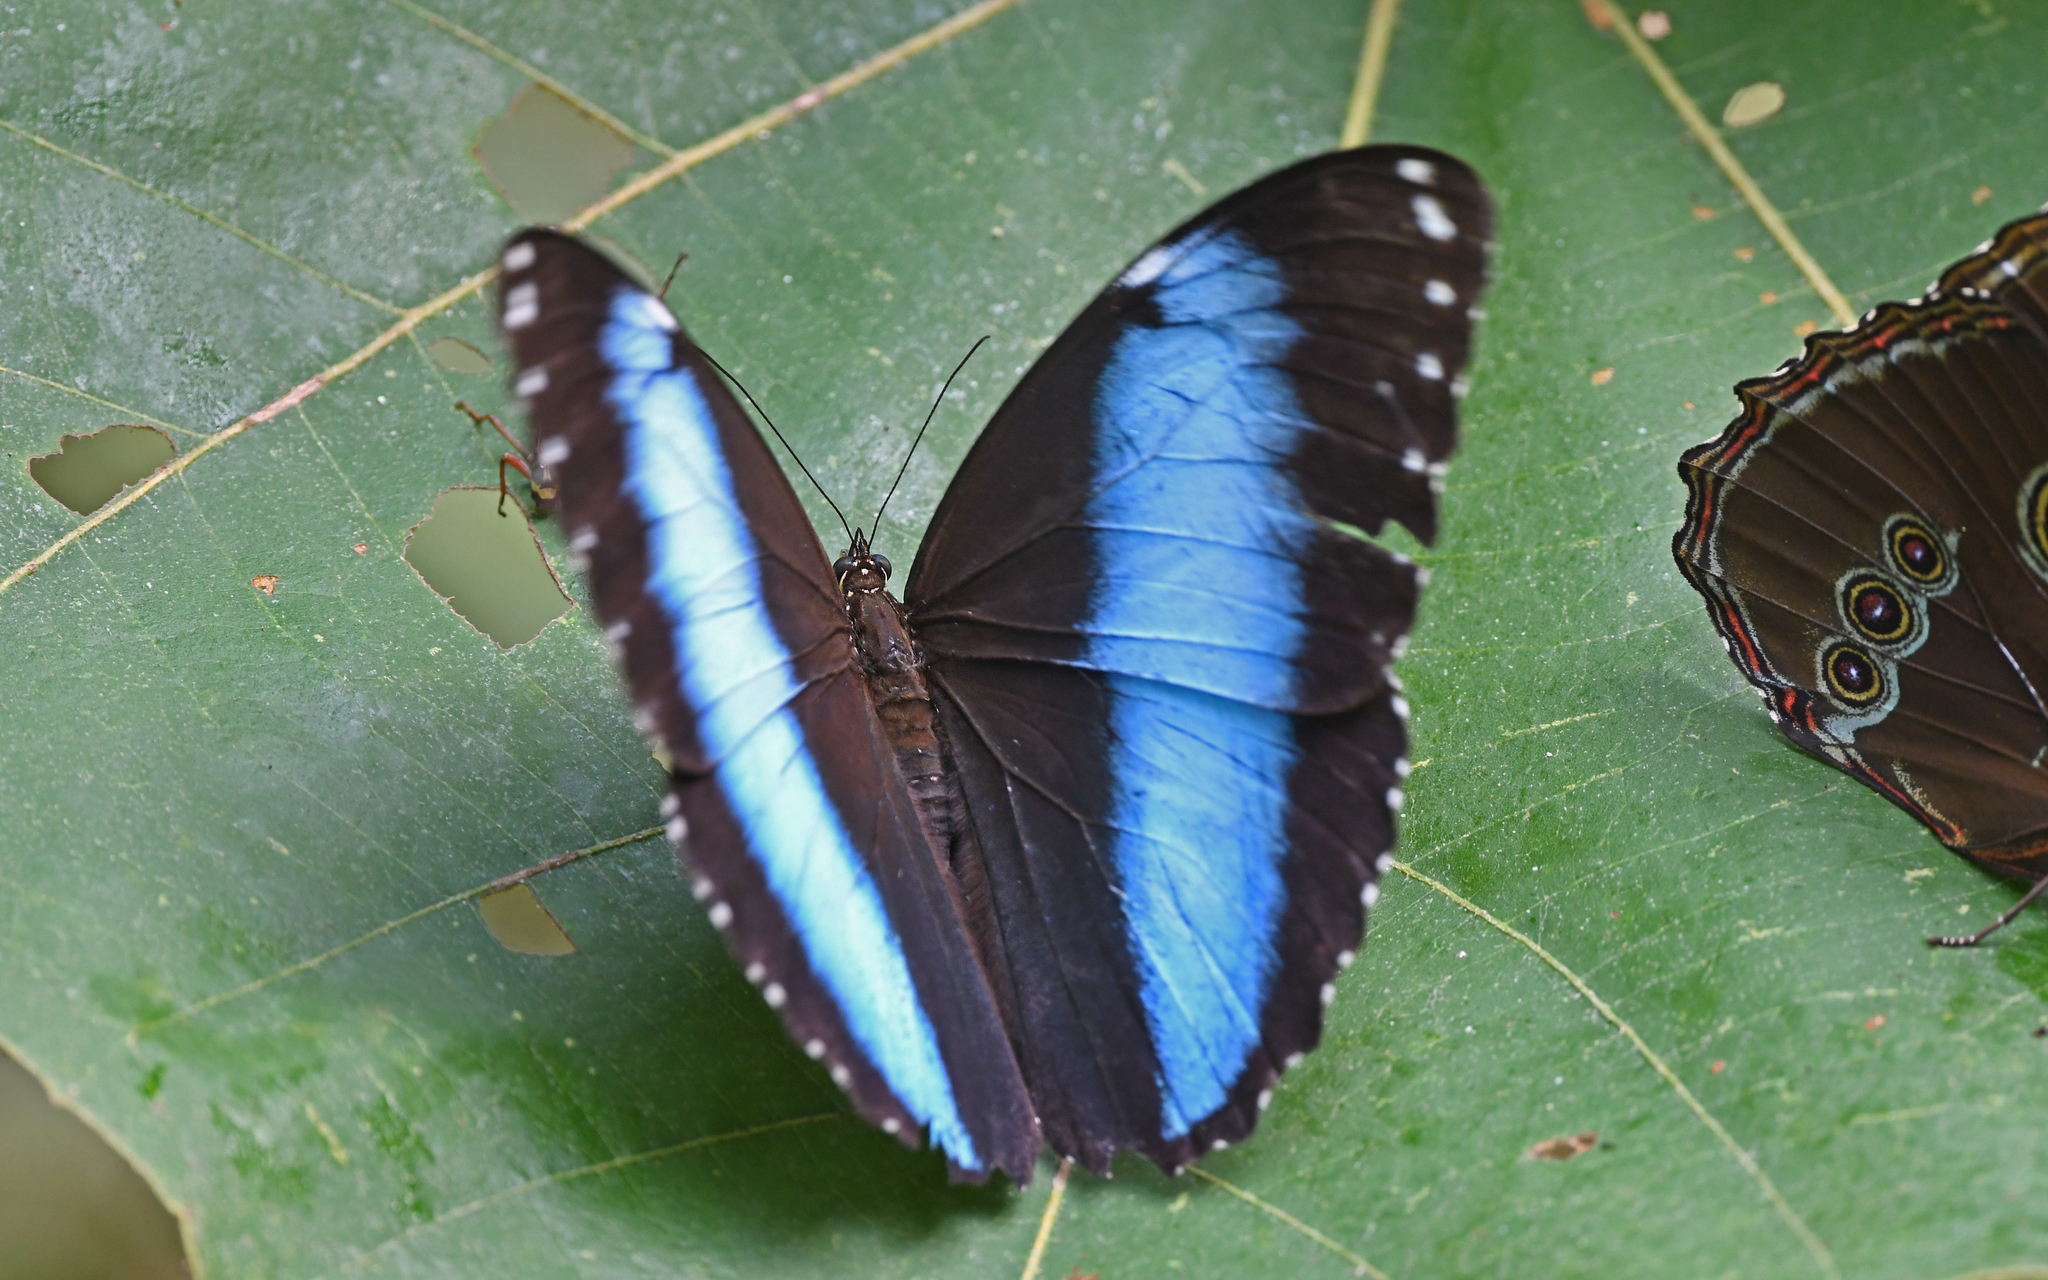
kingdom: Animalia
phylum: Arthropoda
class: Insecta
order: Lepidoptera
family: Nymphalidae
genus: Morpho
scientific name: Morpho helenor
